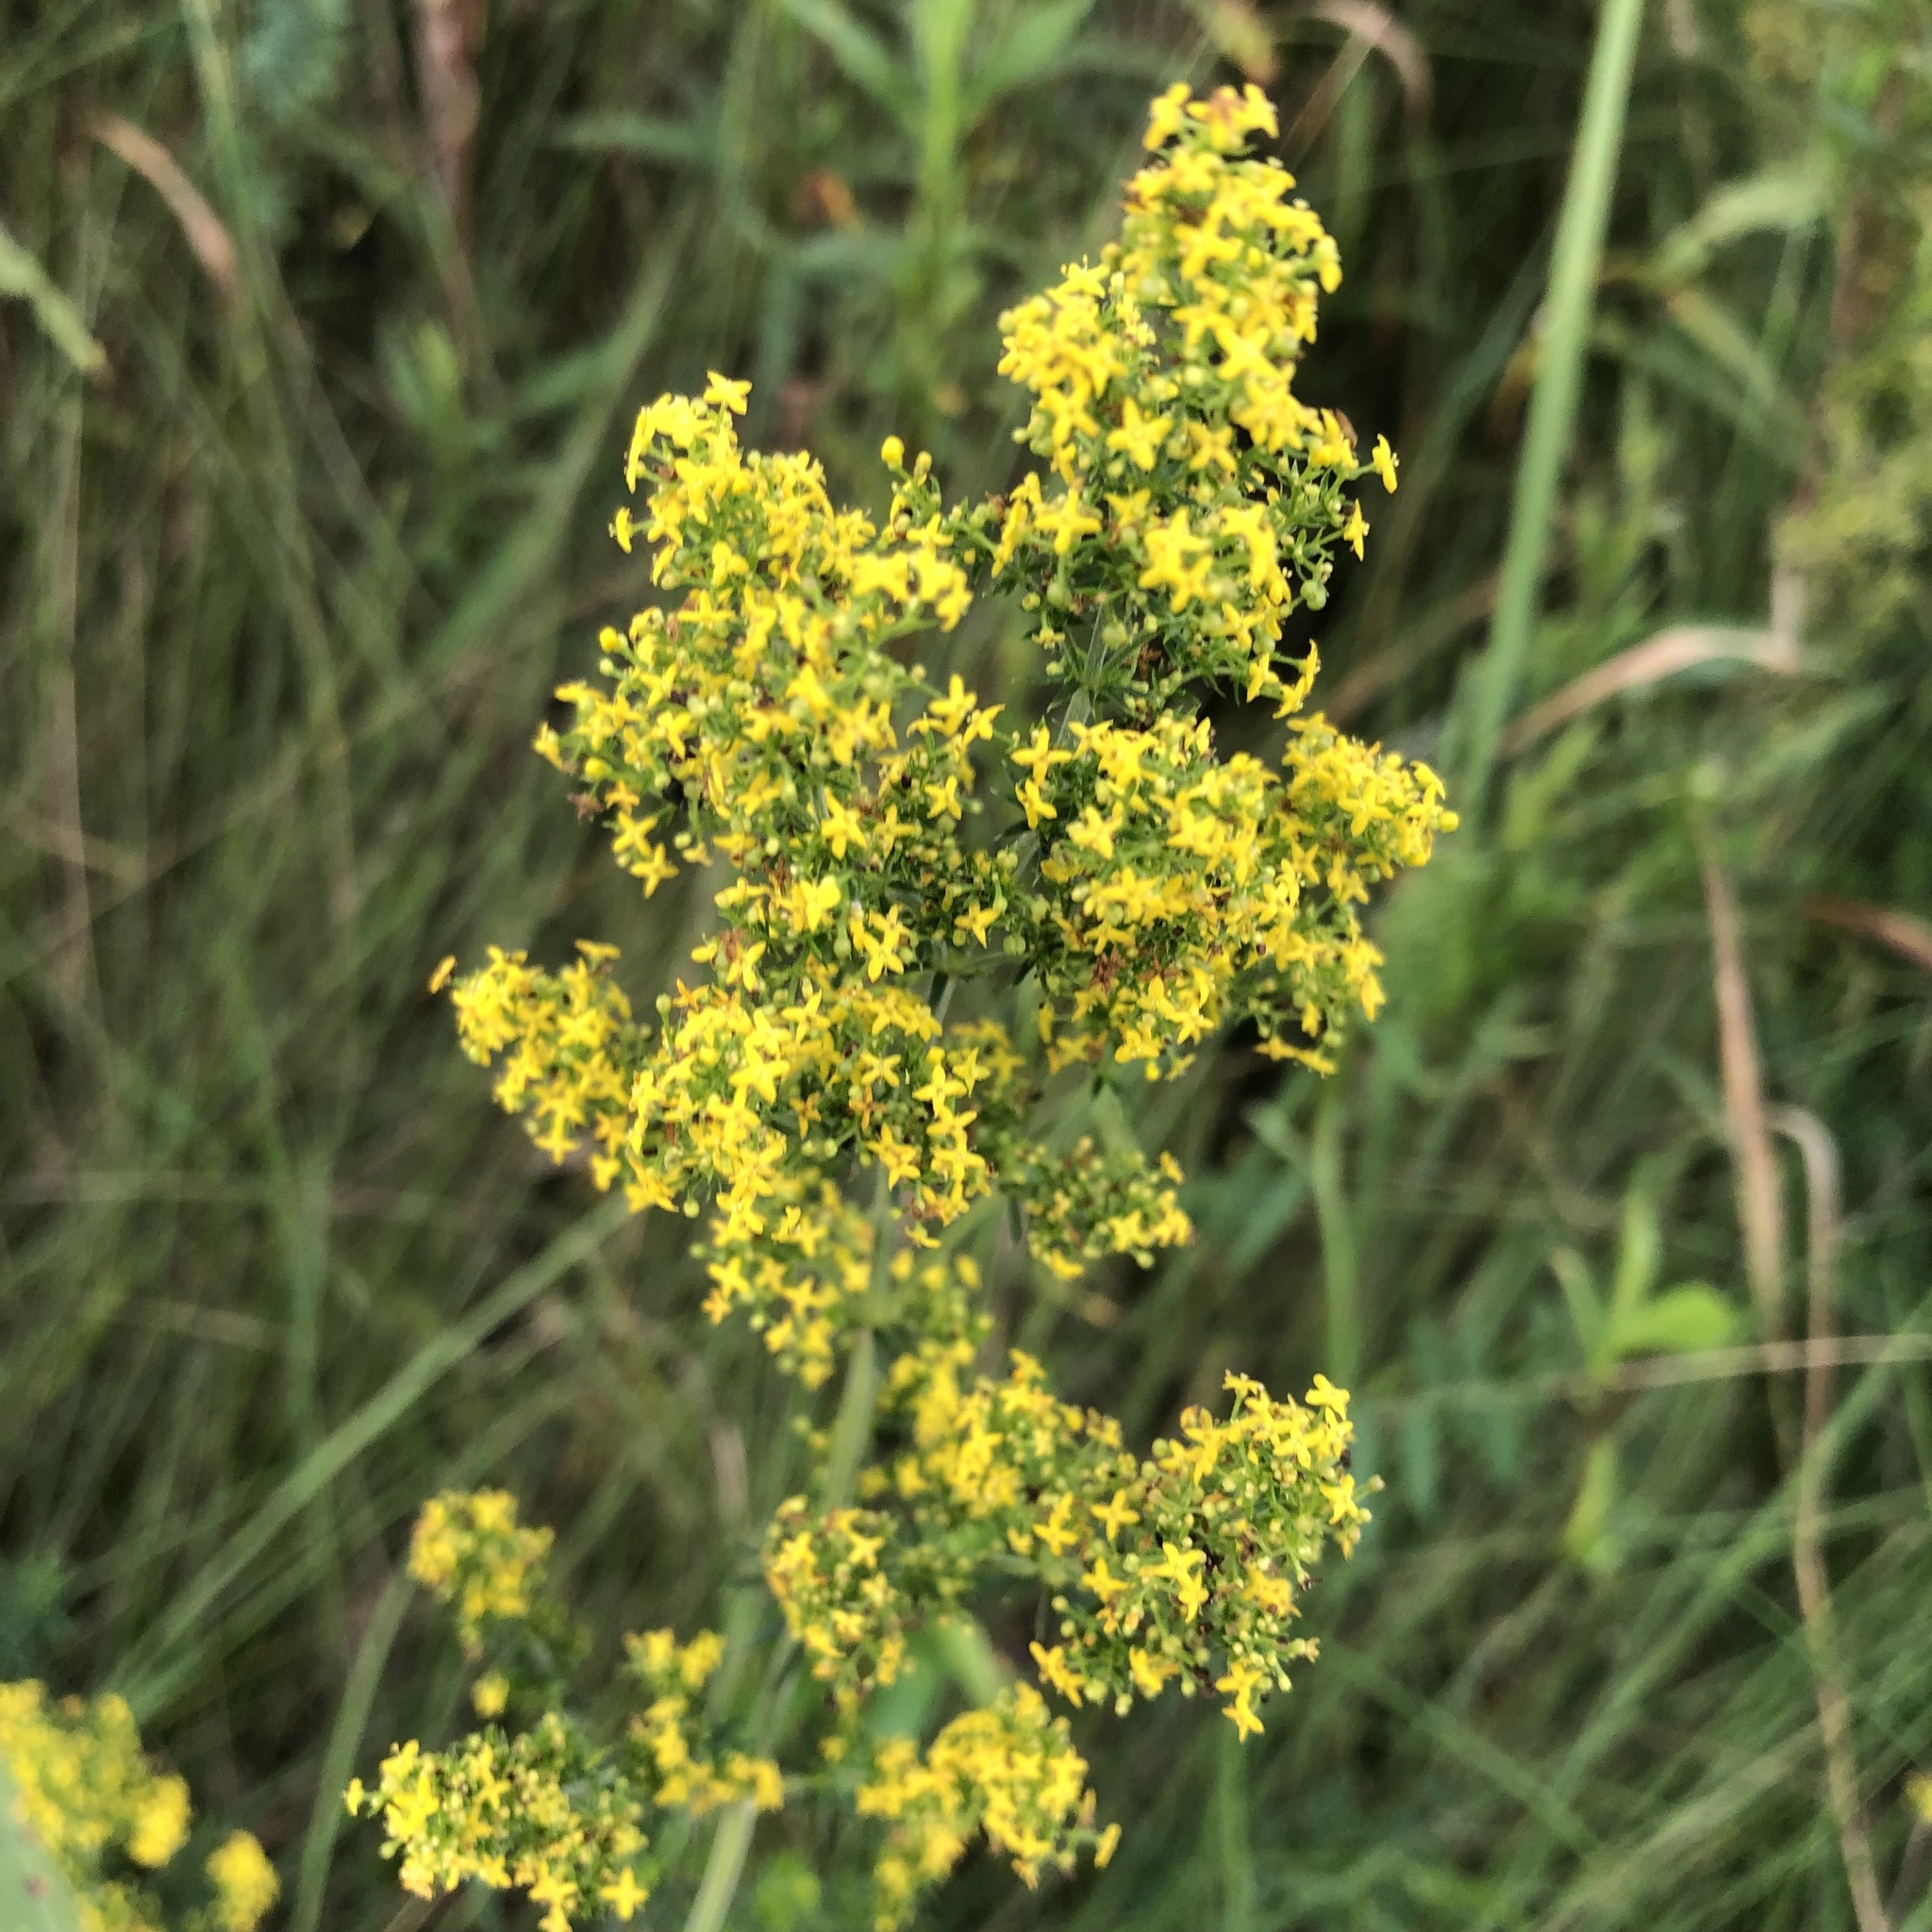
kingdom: Plantae
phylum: Tracheophyta
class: Magnoliopsida
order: Gentianales
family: Rubiaceae
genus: Galium
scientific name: Galium verum
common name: Lady's bedstraw
